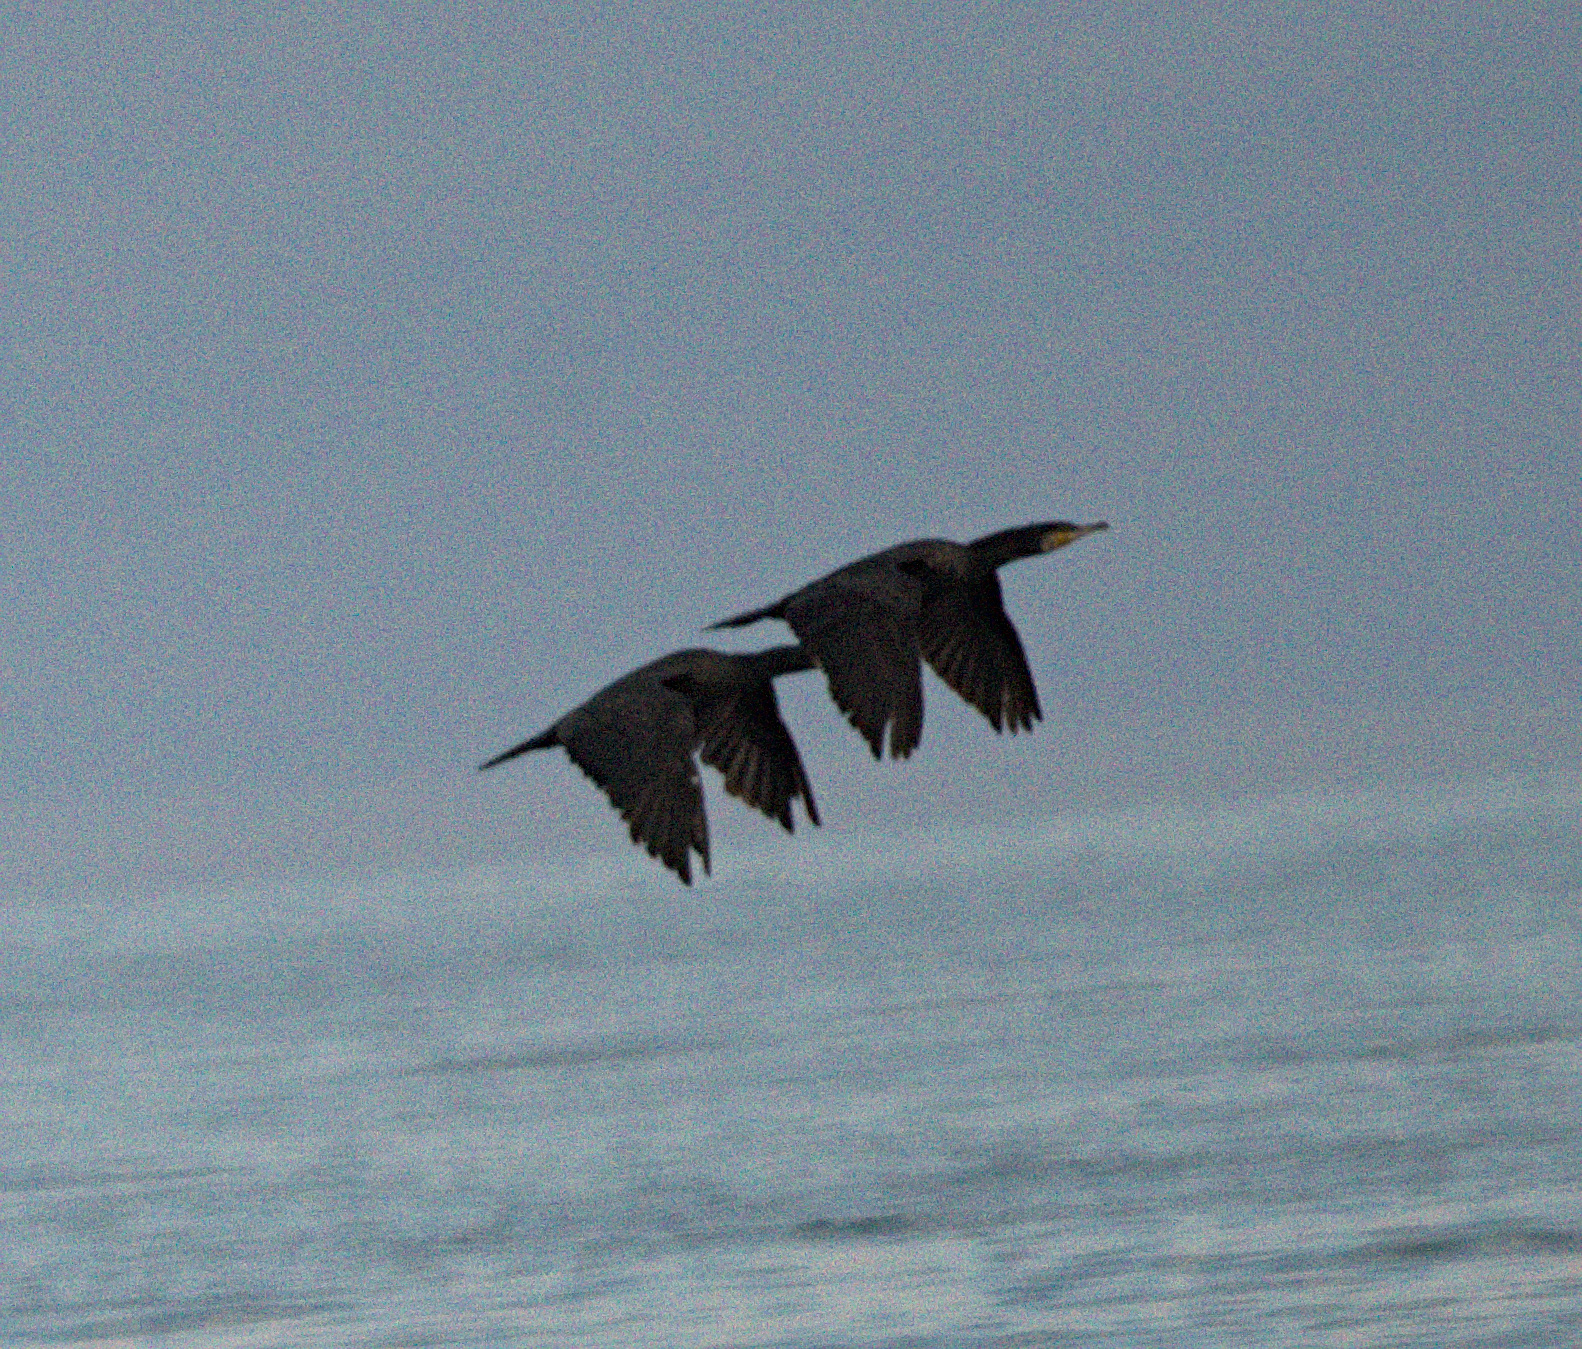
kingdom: Animalia
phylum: Chordata
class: Aves
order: Suliformes
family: Phalacrocoracidae
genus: Phalacrocorax
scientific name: Phalacrocorax carbo
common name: Great cormorant
